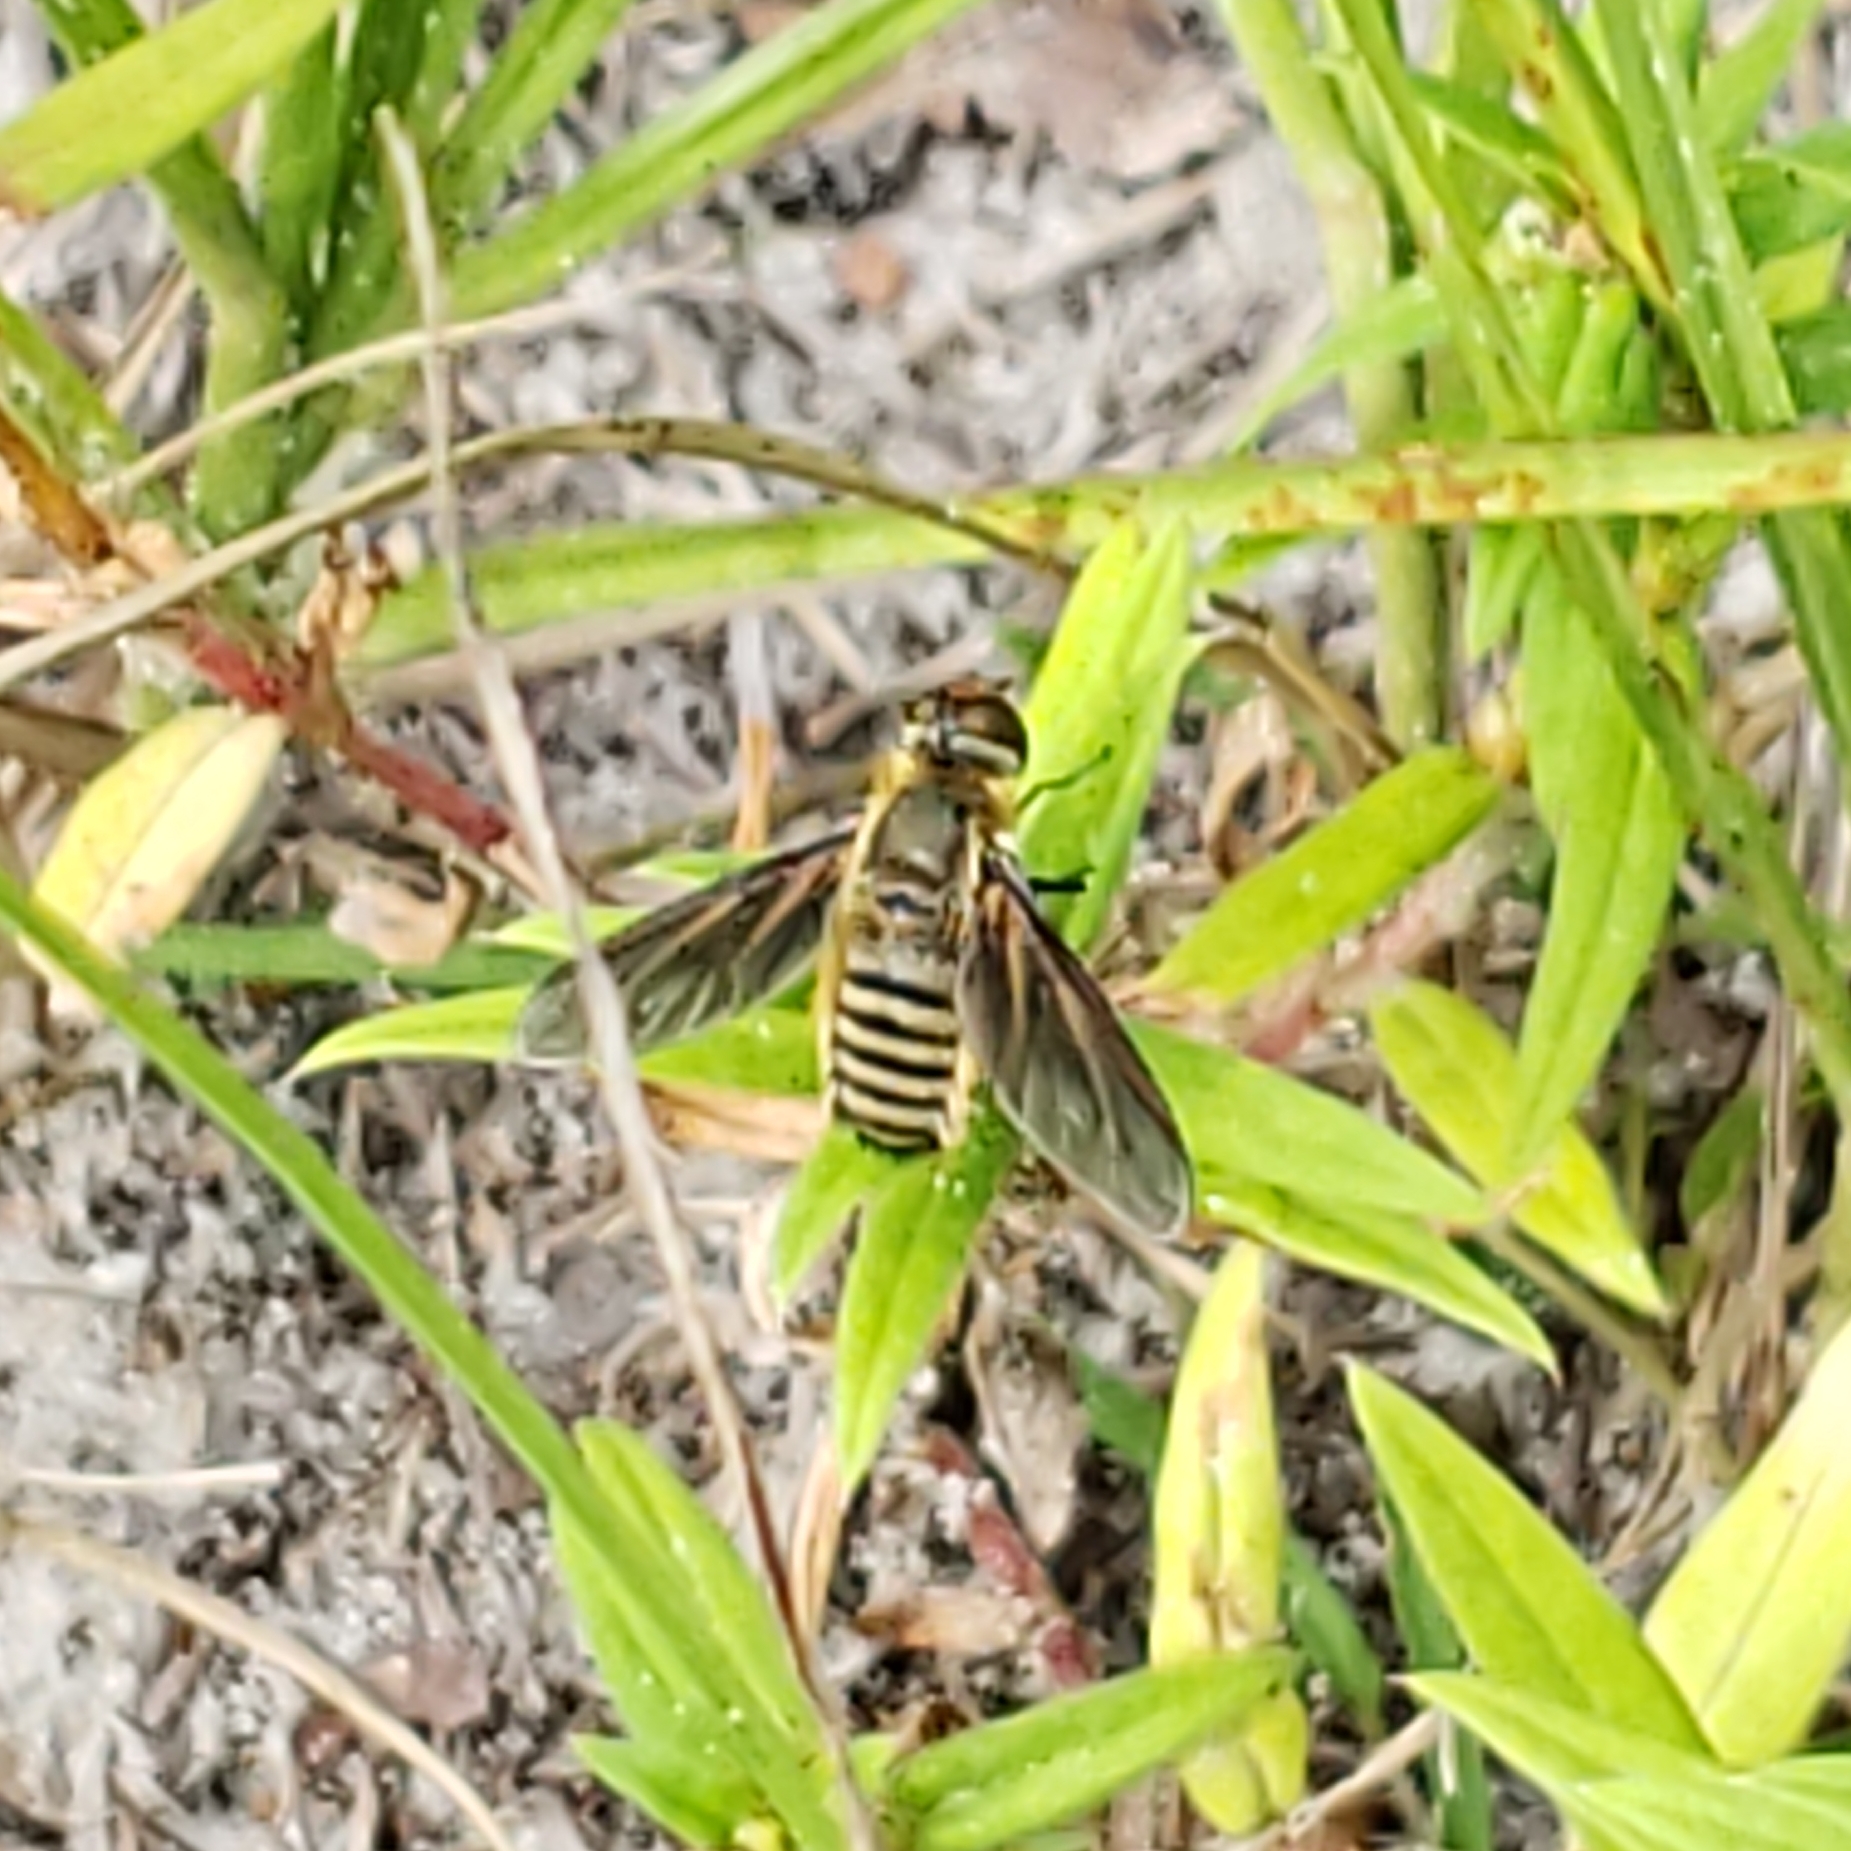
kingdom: Animalia
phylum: Arthropoda
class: Insecta
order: Diptera
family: Bombyliidae
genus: Poecilanthrax
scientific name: Poecilanthrax lucifer
